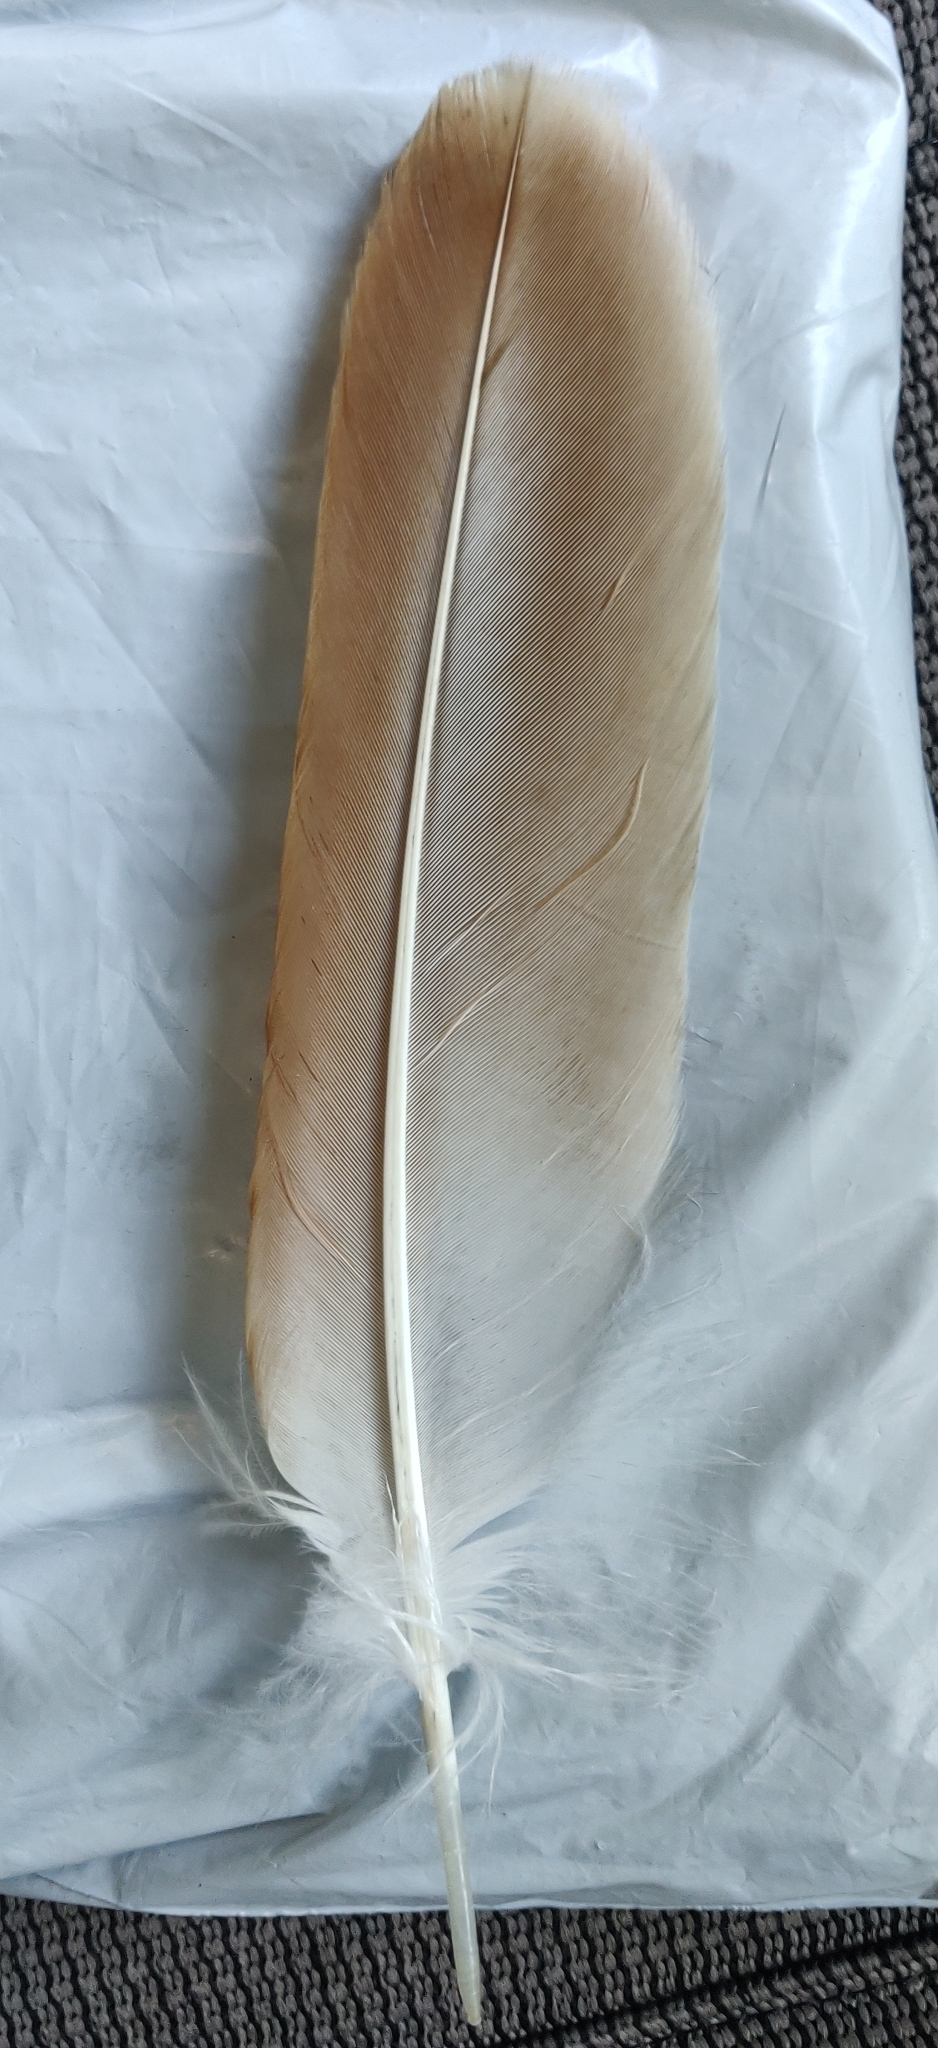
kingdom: Animalia
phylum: Chordata
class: Aves
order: Accipitriformes
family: Accipitridae
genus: Buteo
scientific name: Buteo jamaicensis
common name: Red-tailed hawk
